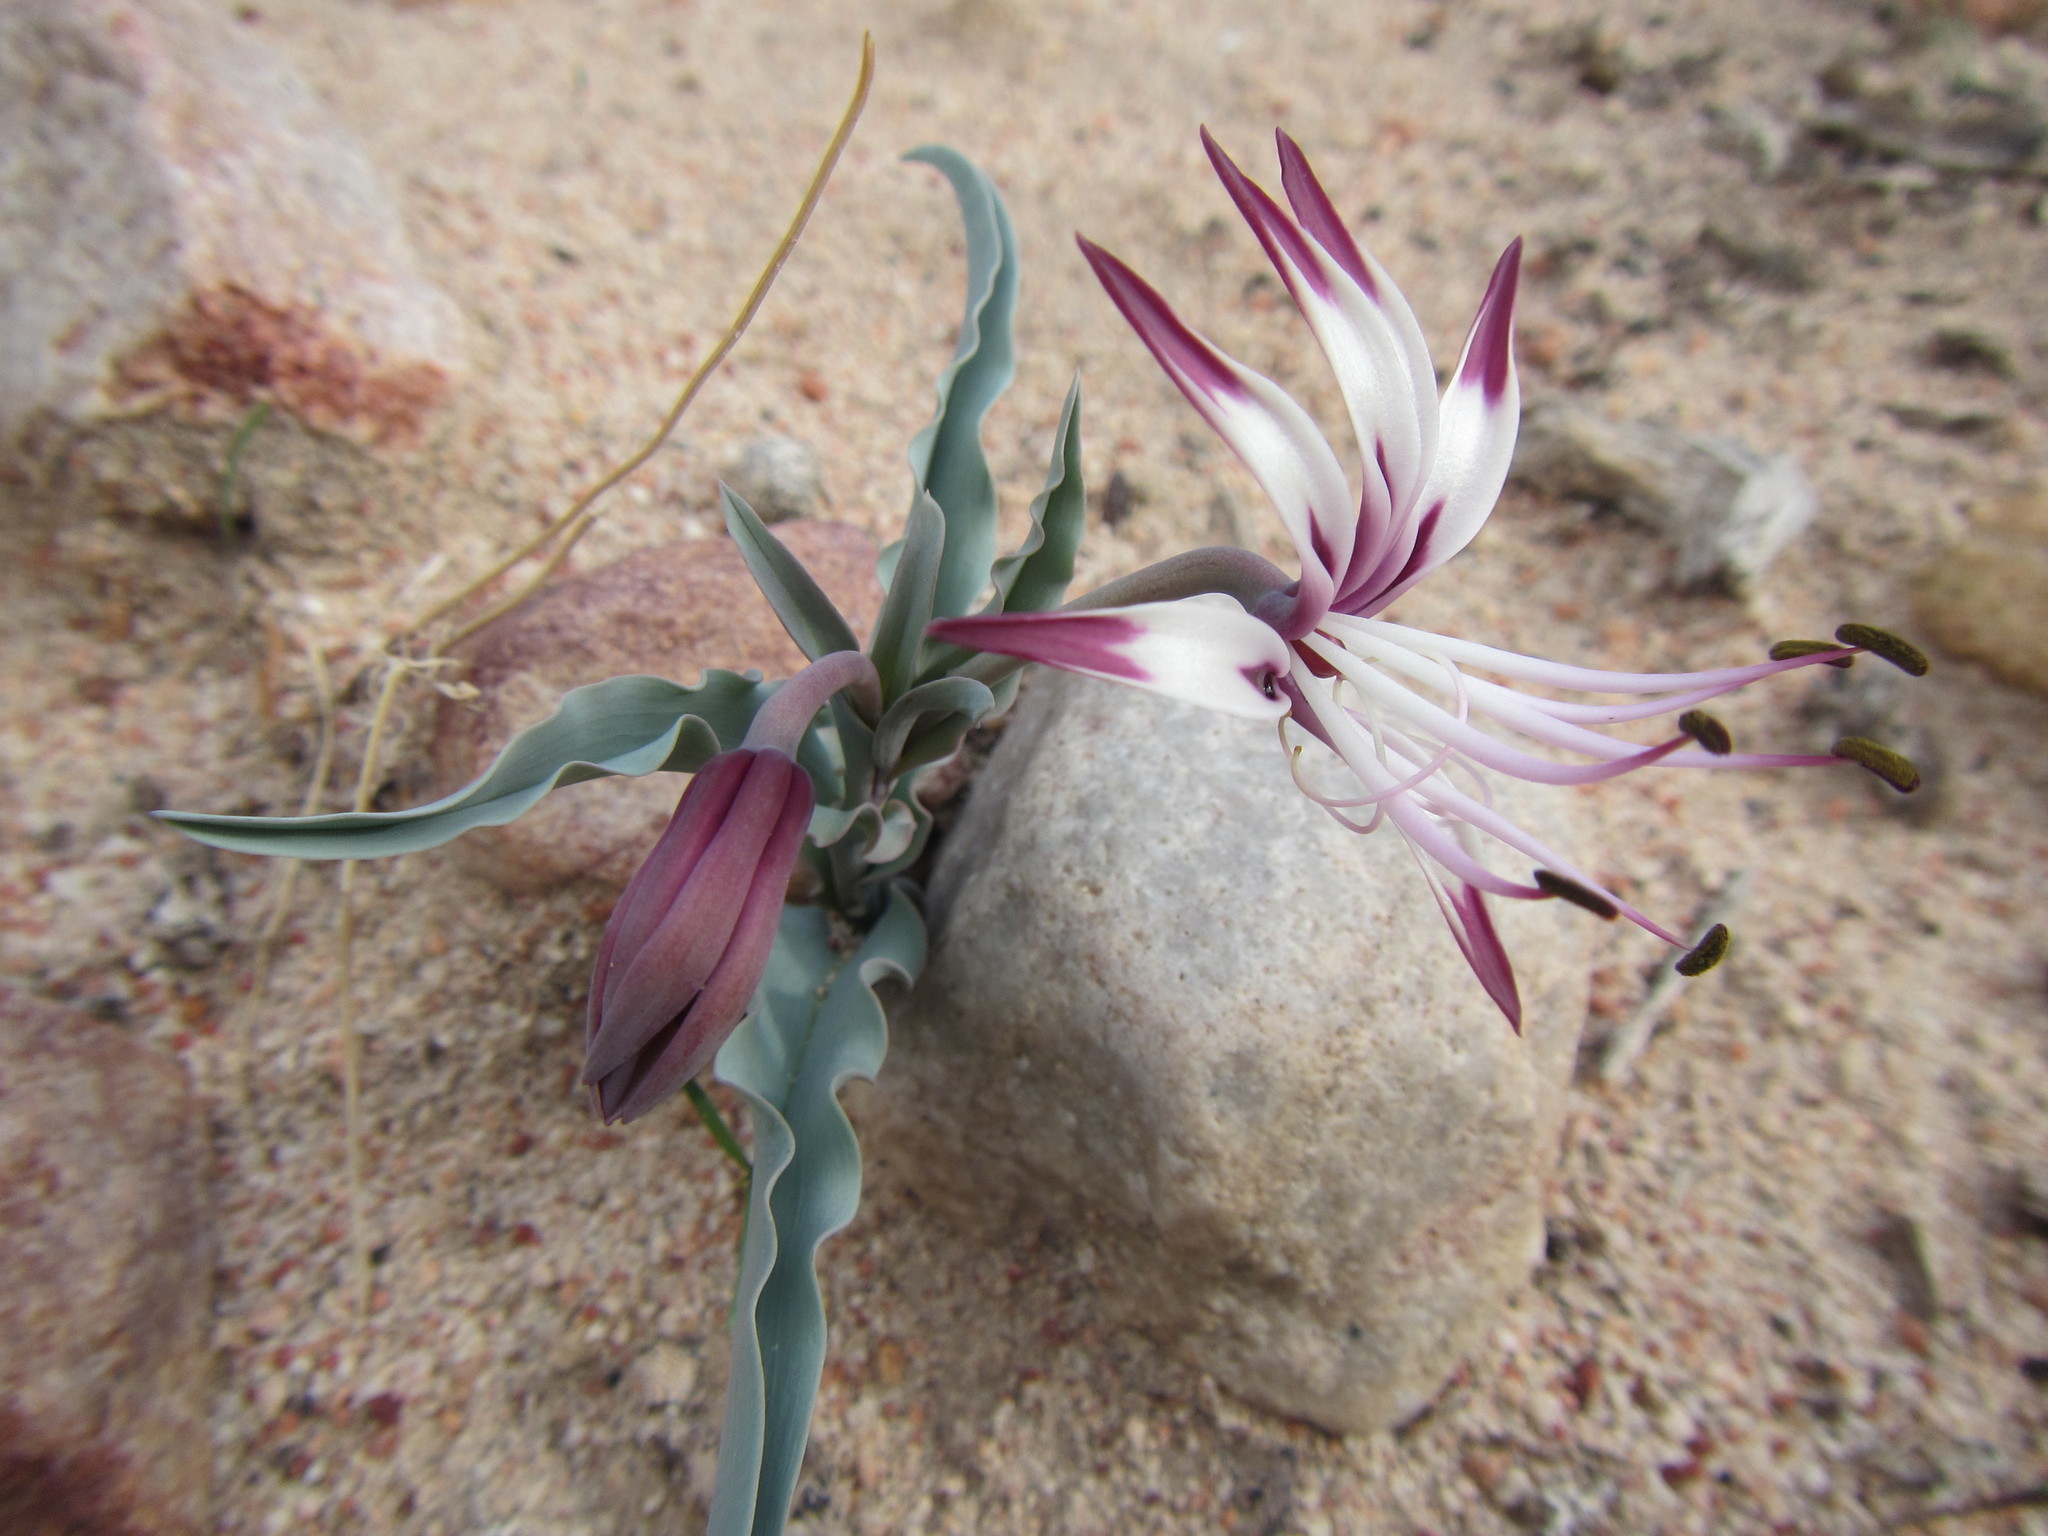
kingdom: Plantae
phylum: Tracheophyta
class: Liliopsida
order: Liliales
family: Colchicaceae
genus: Ornithoglossum
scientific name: Ornithoglossum undulatum
